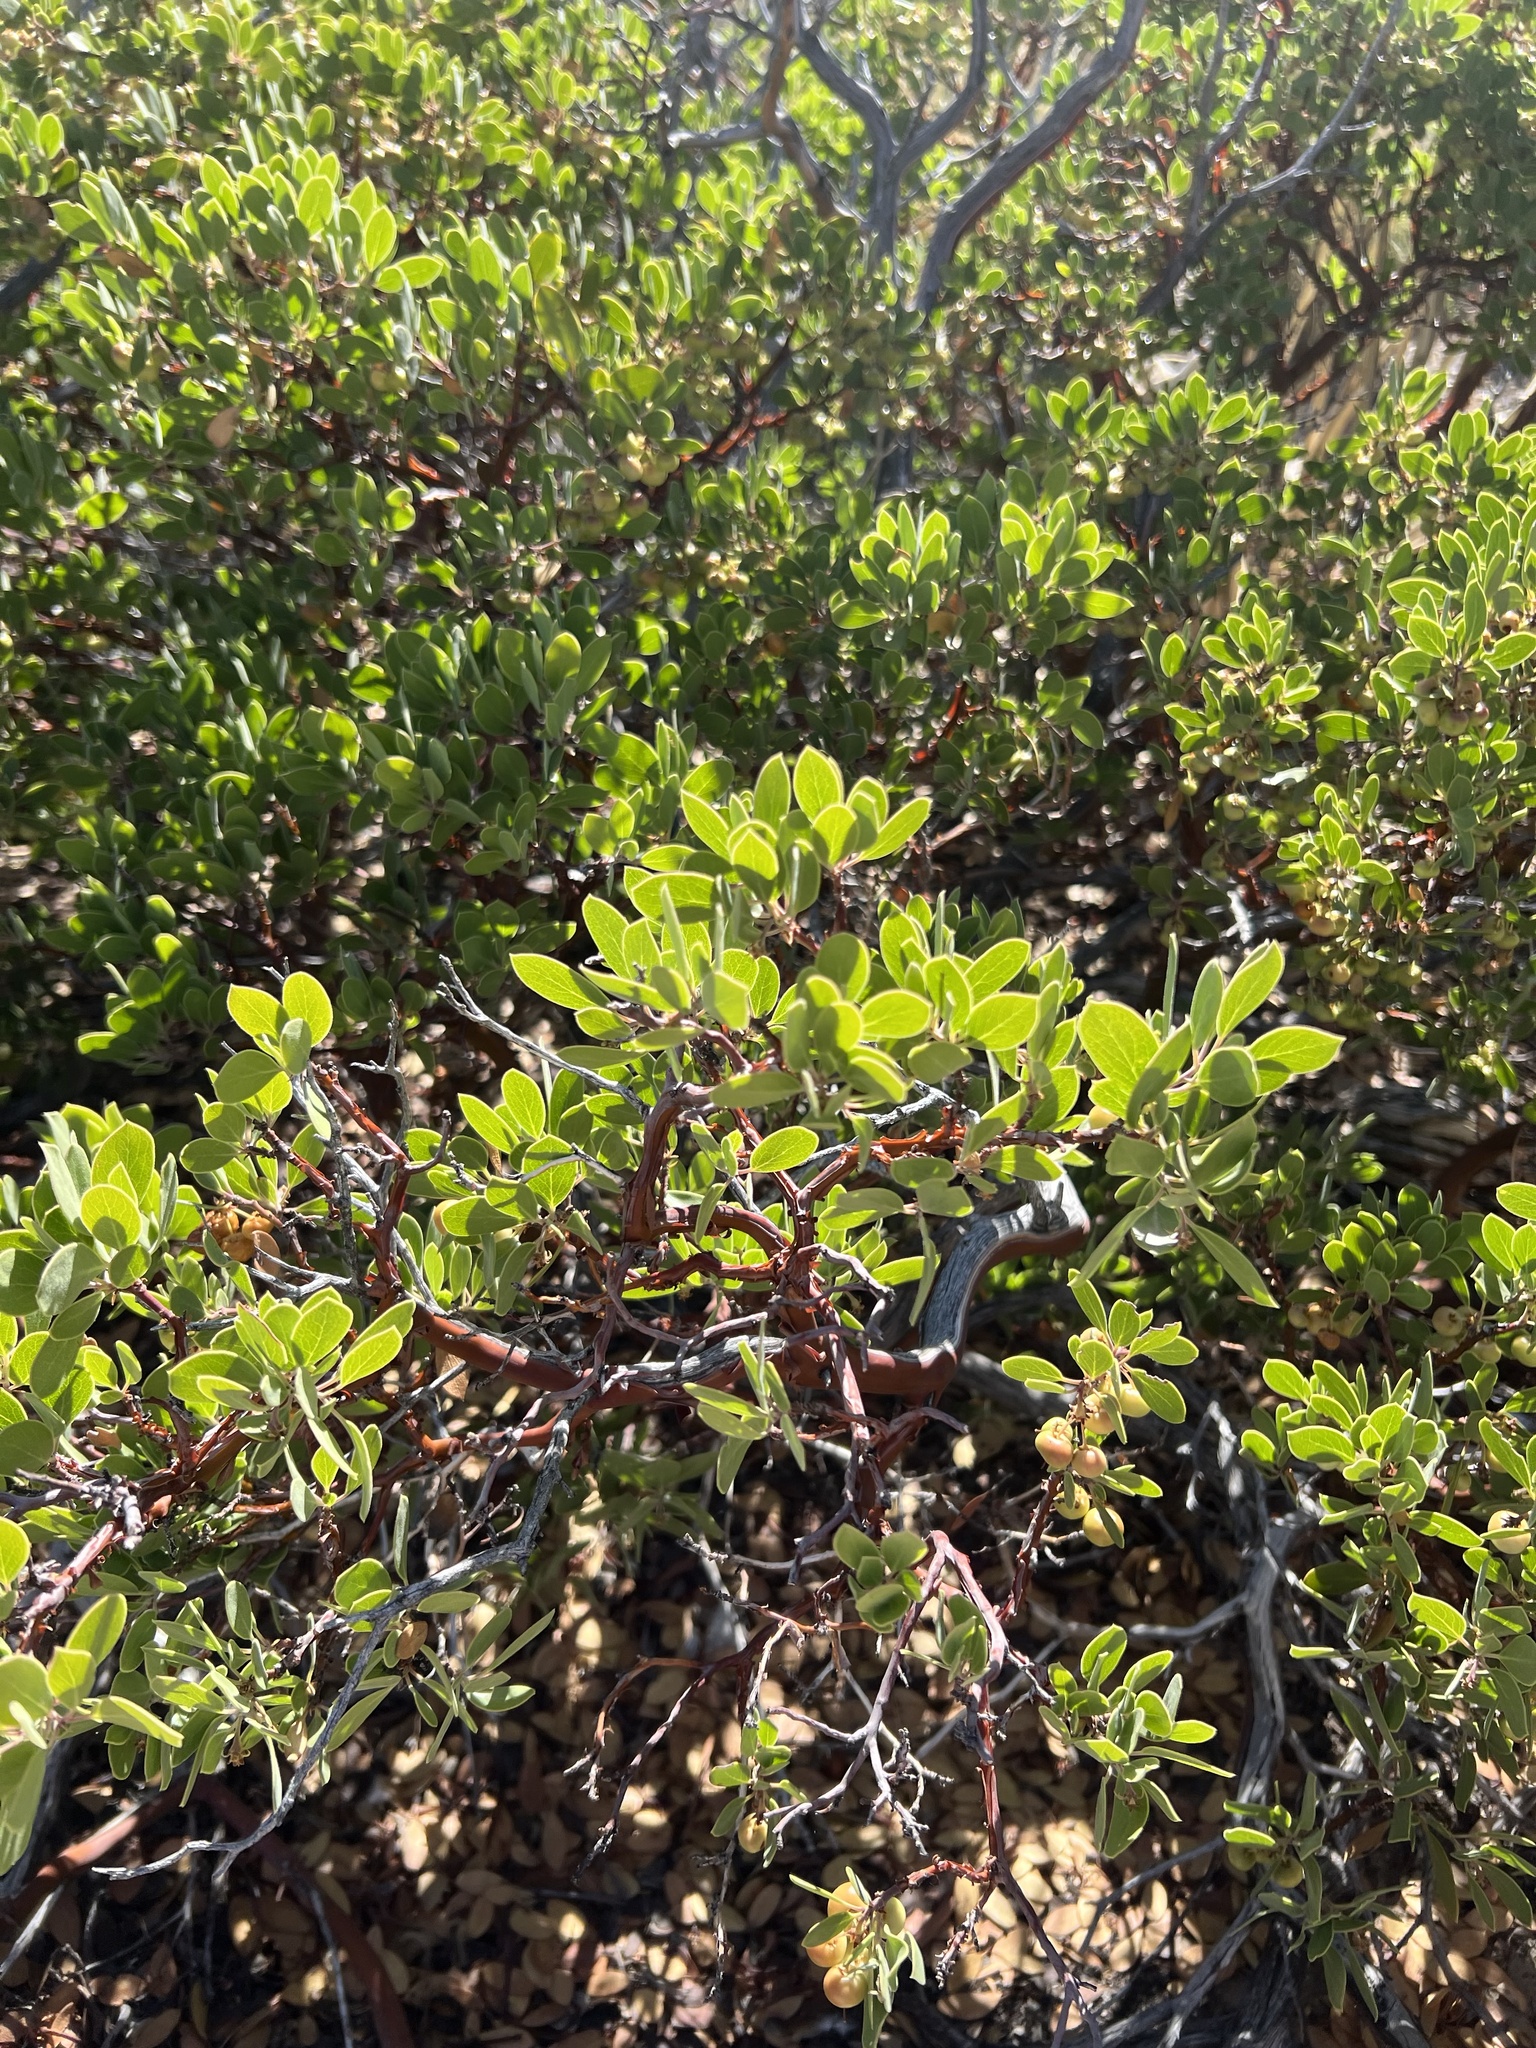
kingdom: Plantae
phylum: Tracheophyta
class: Magnoliopsida
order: Ericales
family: Ericaceae
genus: Arctostaphylos
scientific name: Arctostaphylos pungens
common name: Mexican manzanita
